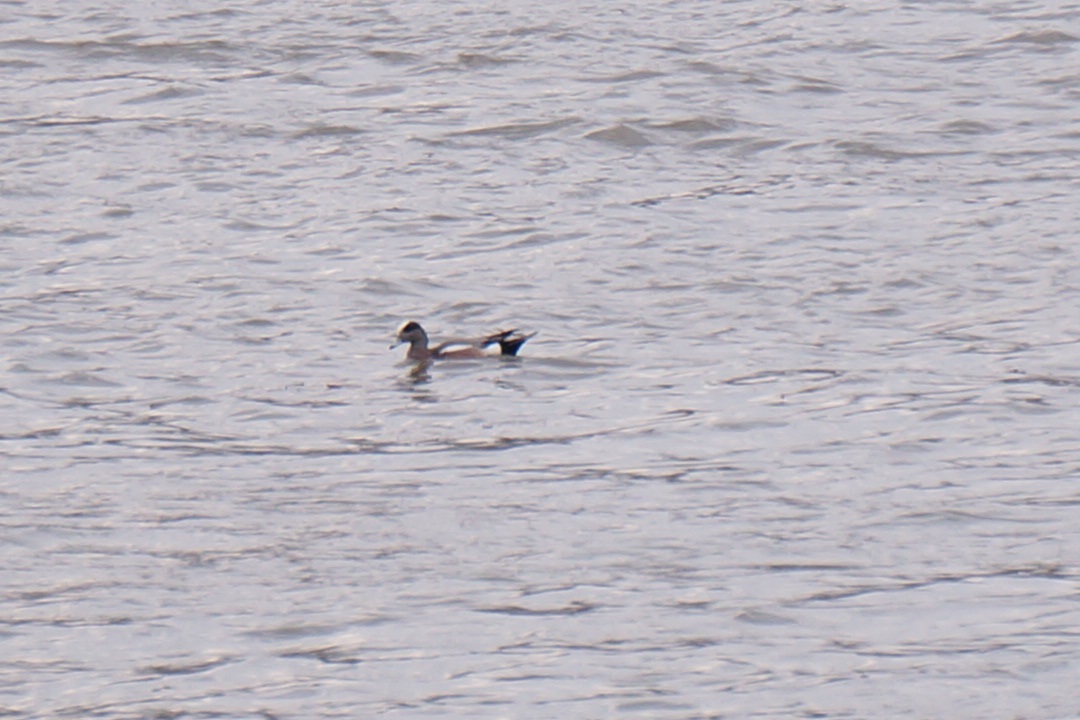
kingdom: Animalia
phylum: Chordata
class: Aves
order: Anseriformes
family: Anatidae
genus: Mareca
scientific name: Mareca americana
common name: American wigeon
